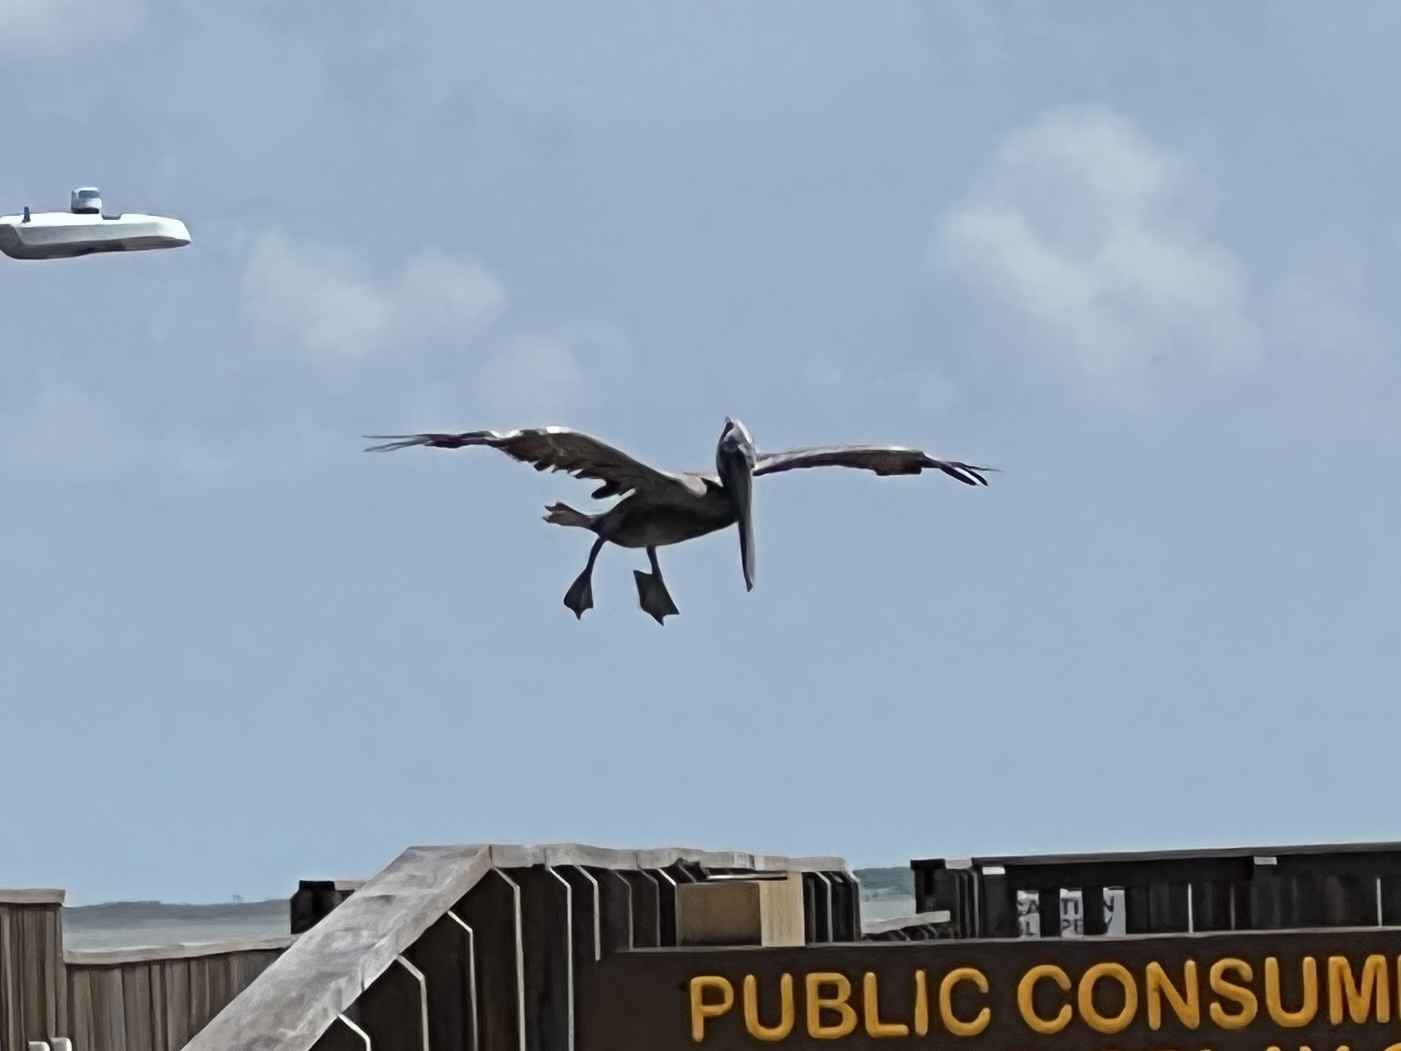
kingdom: Animalia
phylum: Chordata
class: Aves
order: Pelecaniformes
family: Pelecanidae
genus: Pelecanus
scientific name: Pelecanus occidentalis
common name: Brown pelican
